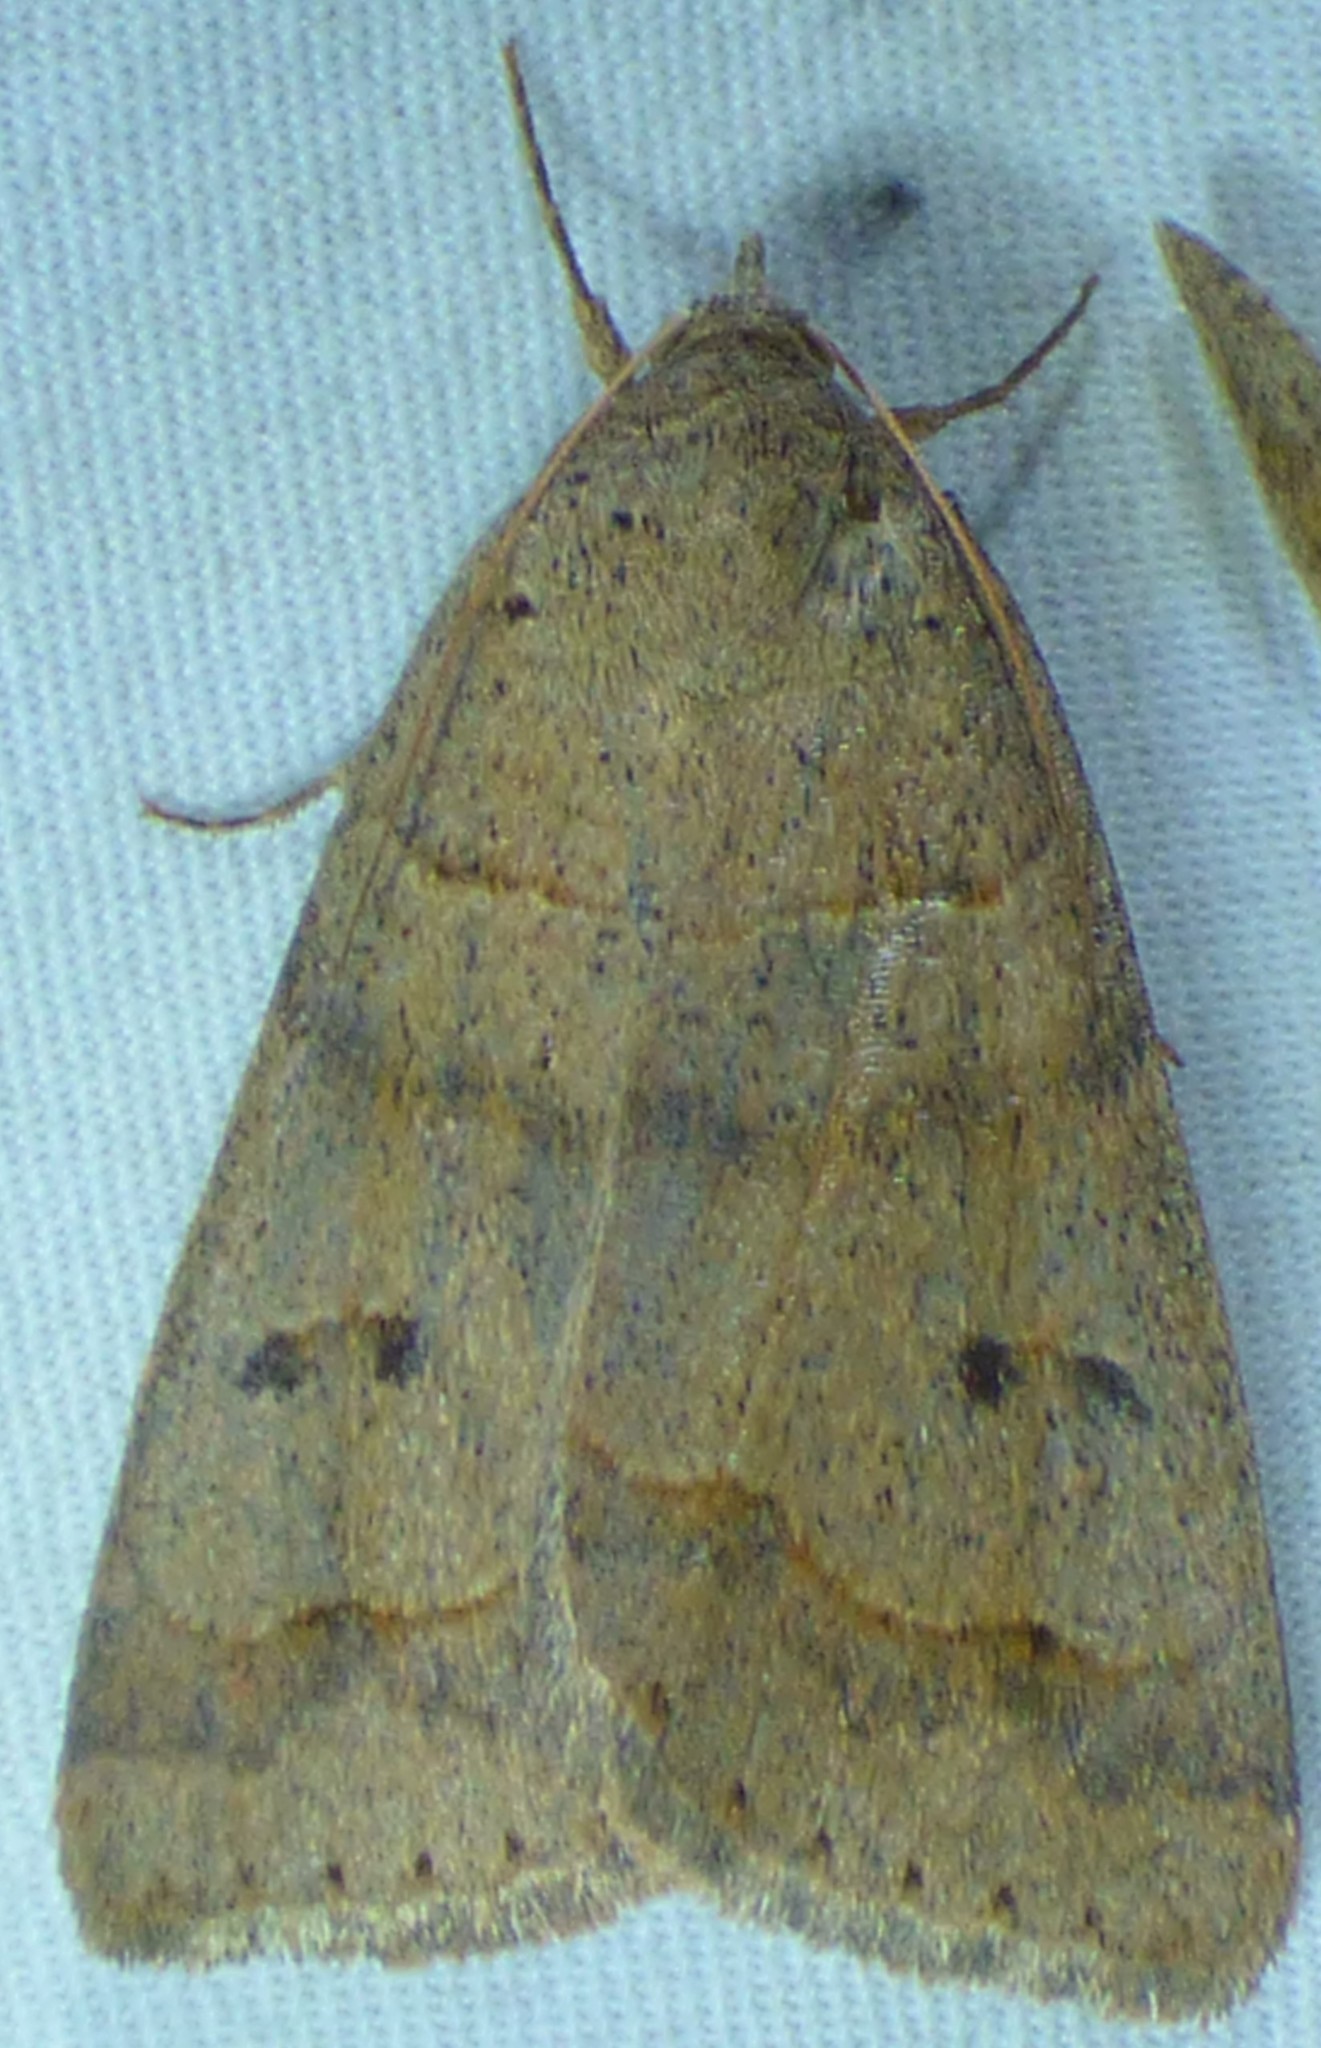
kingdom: Animalia
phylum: Arthropoda
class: Insecta
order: Lepidoptera
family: Erebidae
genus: Phoberia
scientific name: Phoberia atomaris
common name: Common oak moth
